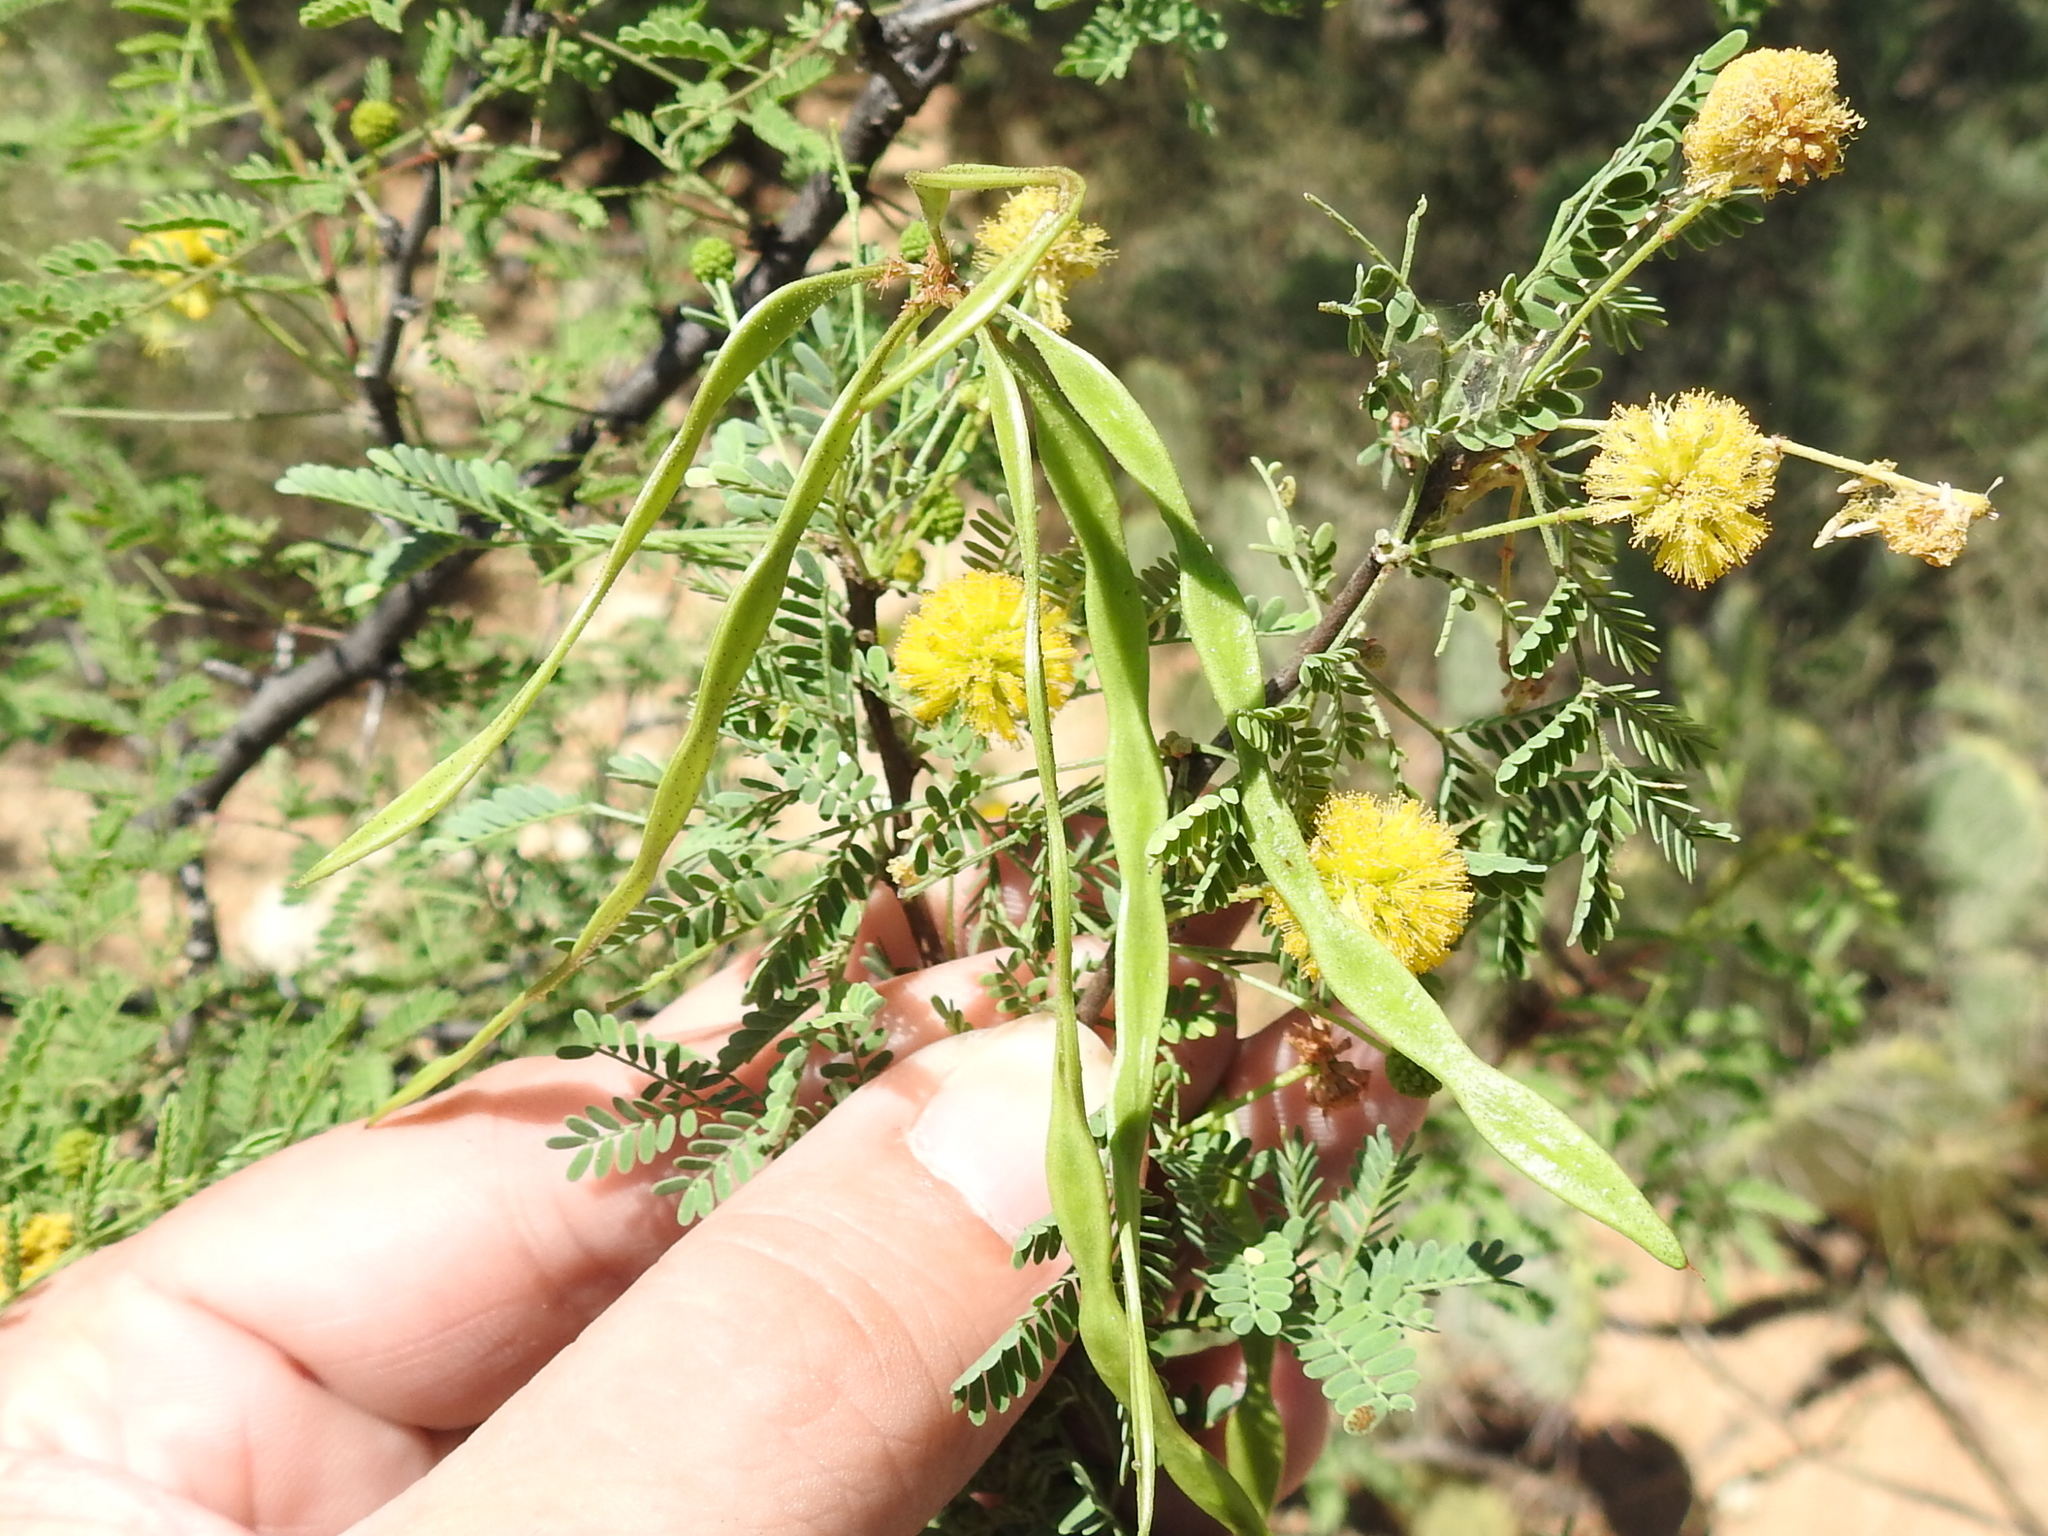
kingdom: Plantae
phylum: Tracheophyta
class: Magnoliopsida
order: Fabales
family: Fabaceae
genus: Vachellia
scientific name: Vachellia constricta
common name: Mescat acacia
